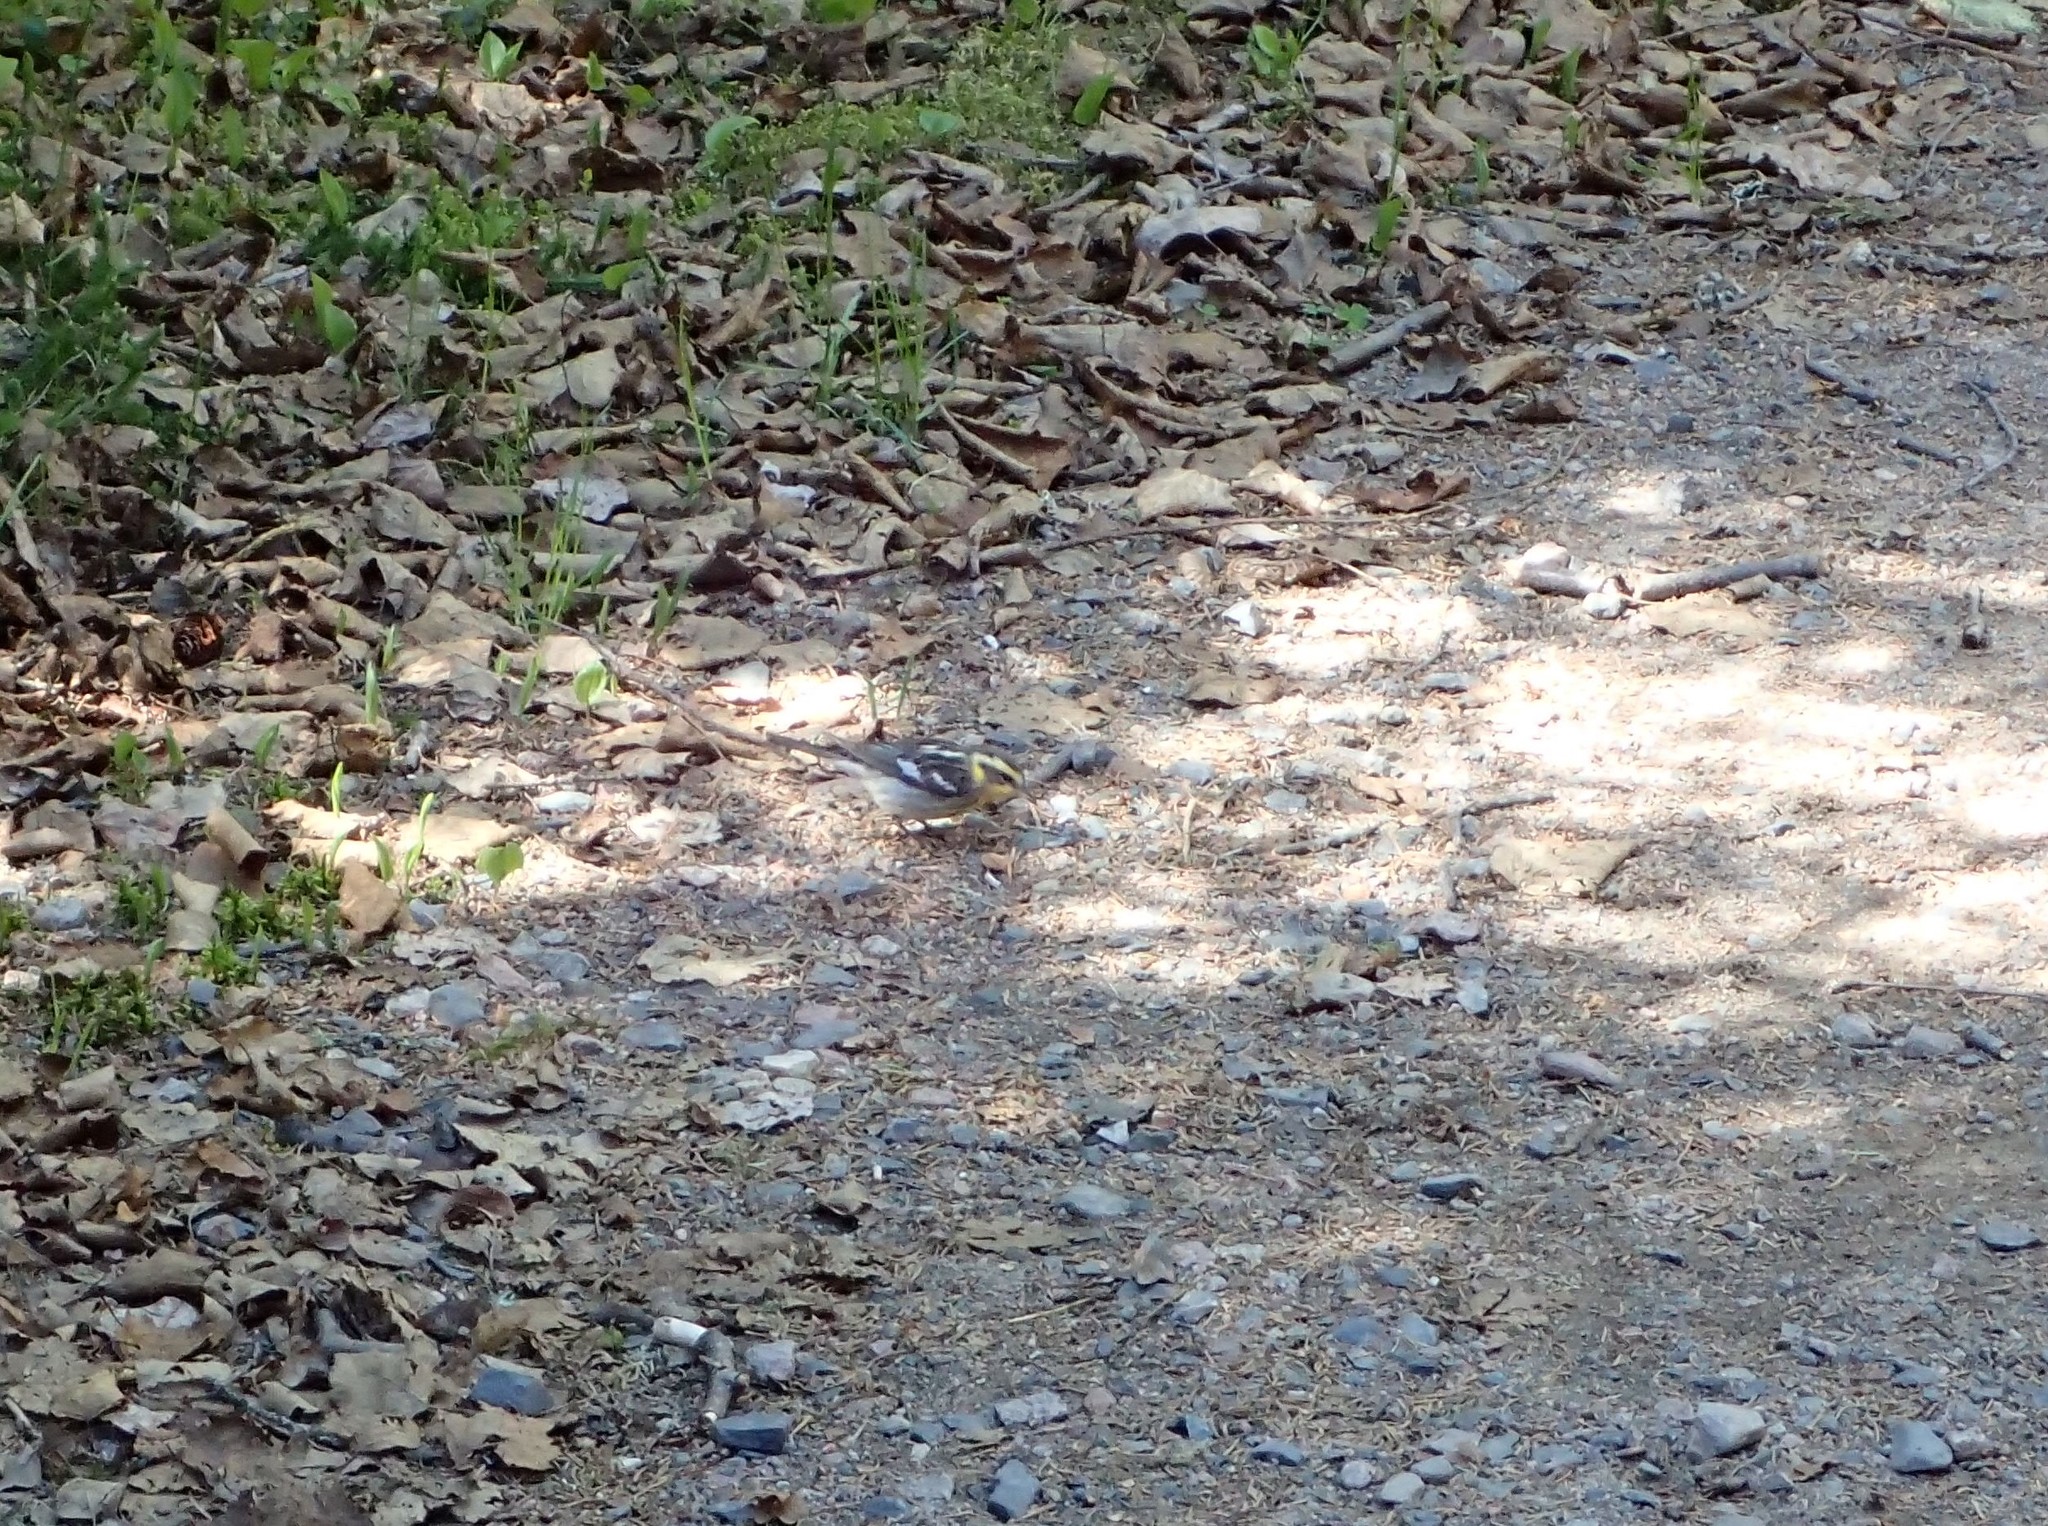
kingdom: Animalia
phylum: Chordata
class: Aves
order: Passeriformes
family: Parulidae
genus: Setophaga
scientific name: Setophaga fusca
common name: Blackburnian warbler
